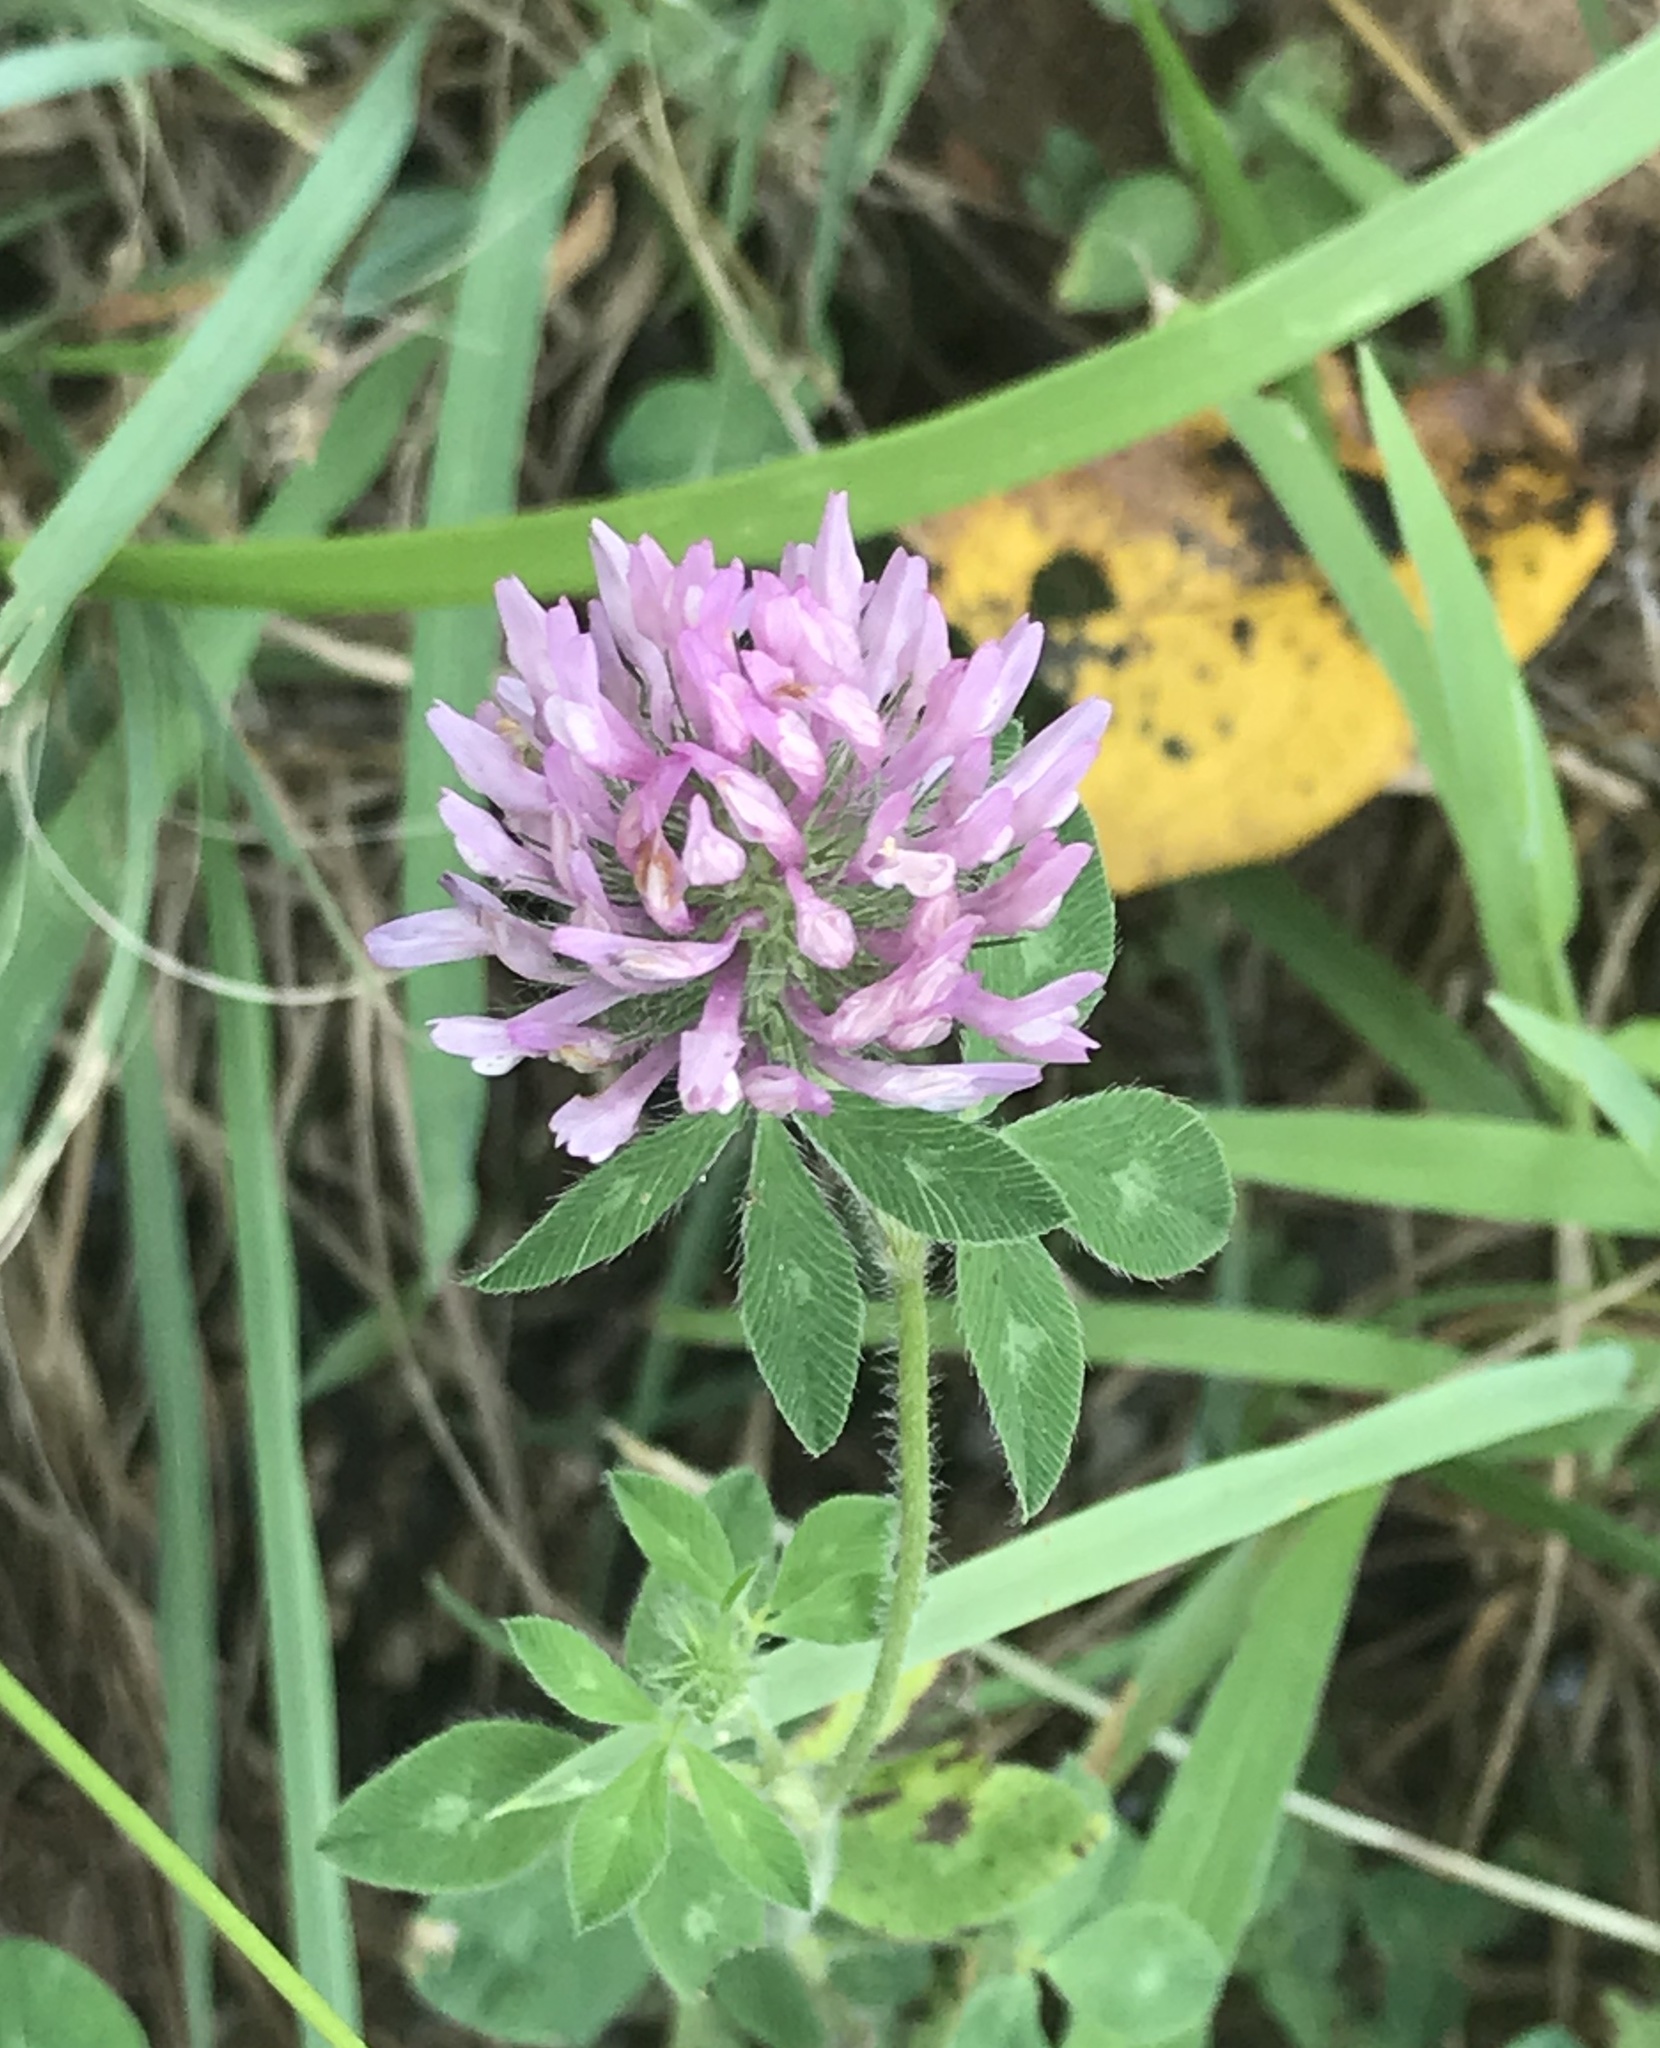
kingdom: Plantae
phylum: Tracheophyta
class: Magnoliopsida
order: Fabales
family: Fabaceae
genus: Trifolium
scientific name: Trifolium pratense
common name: Red clover
